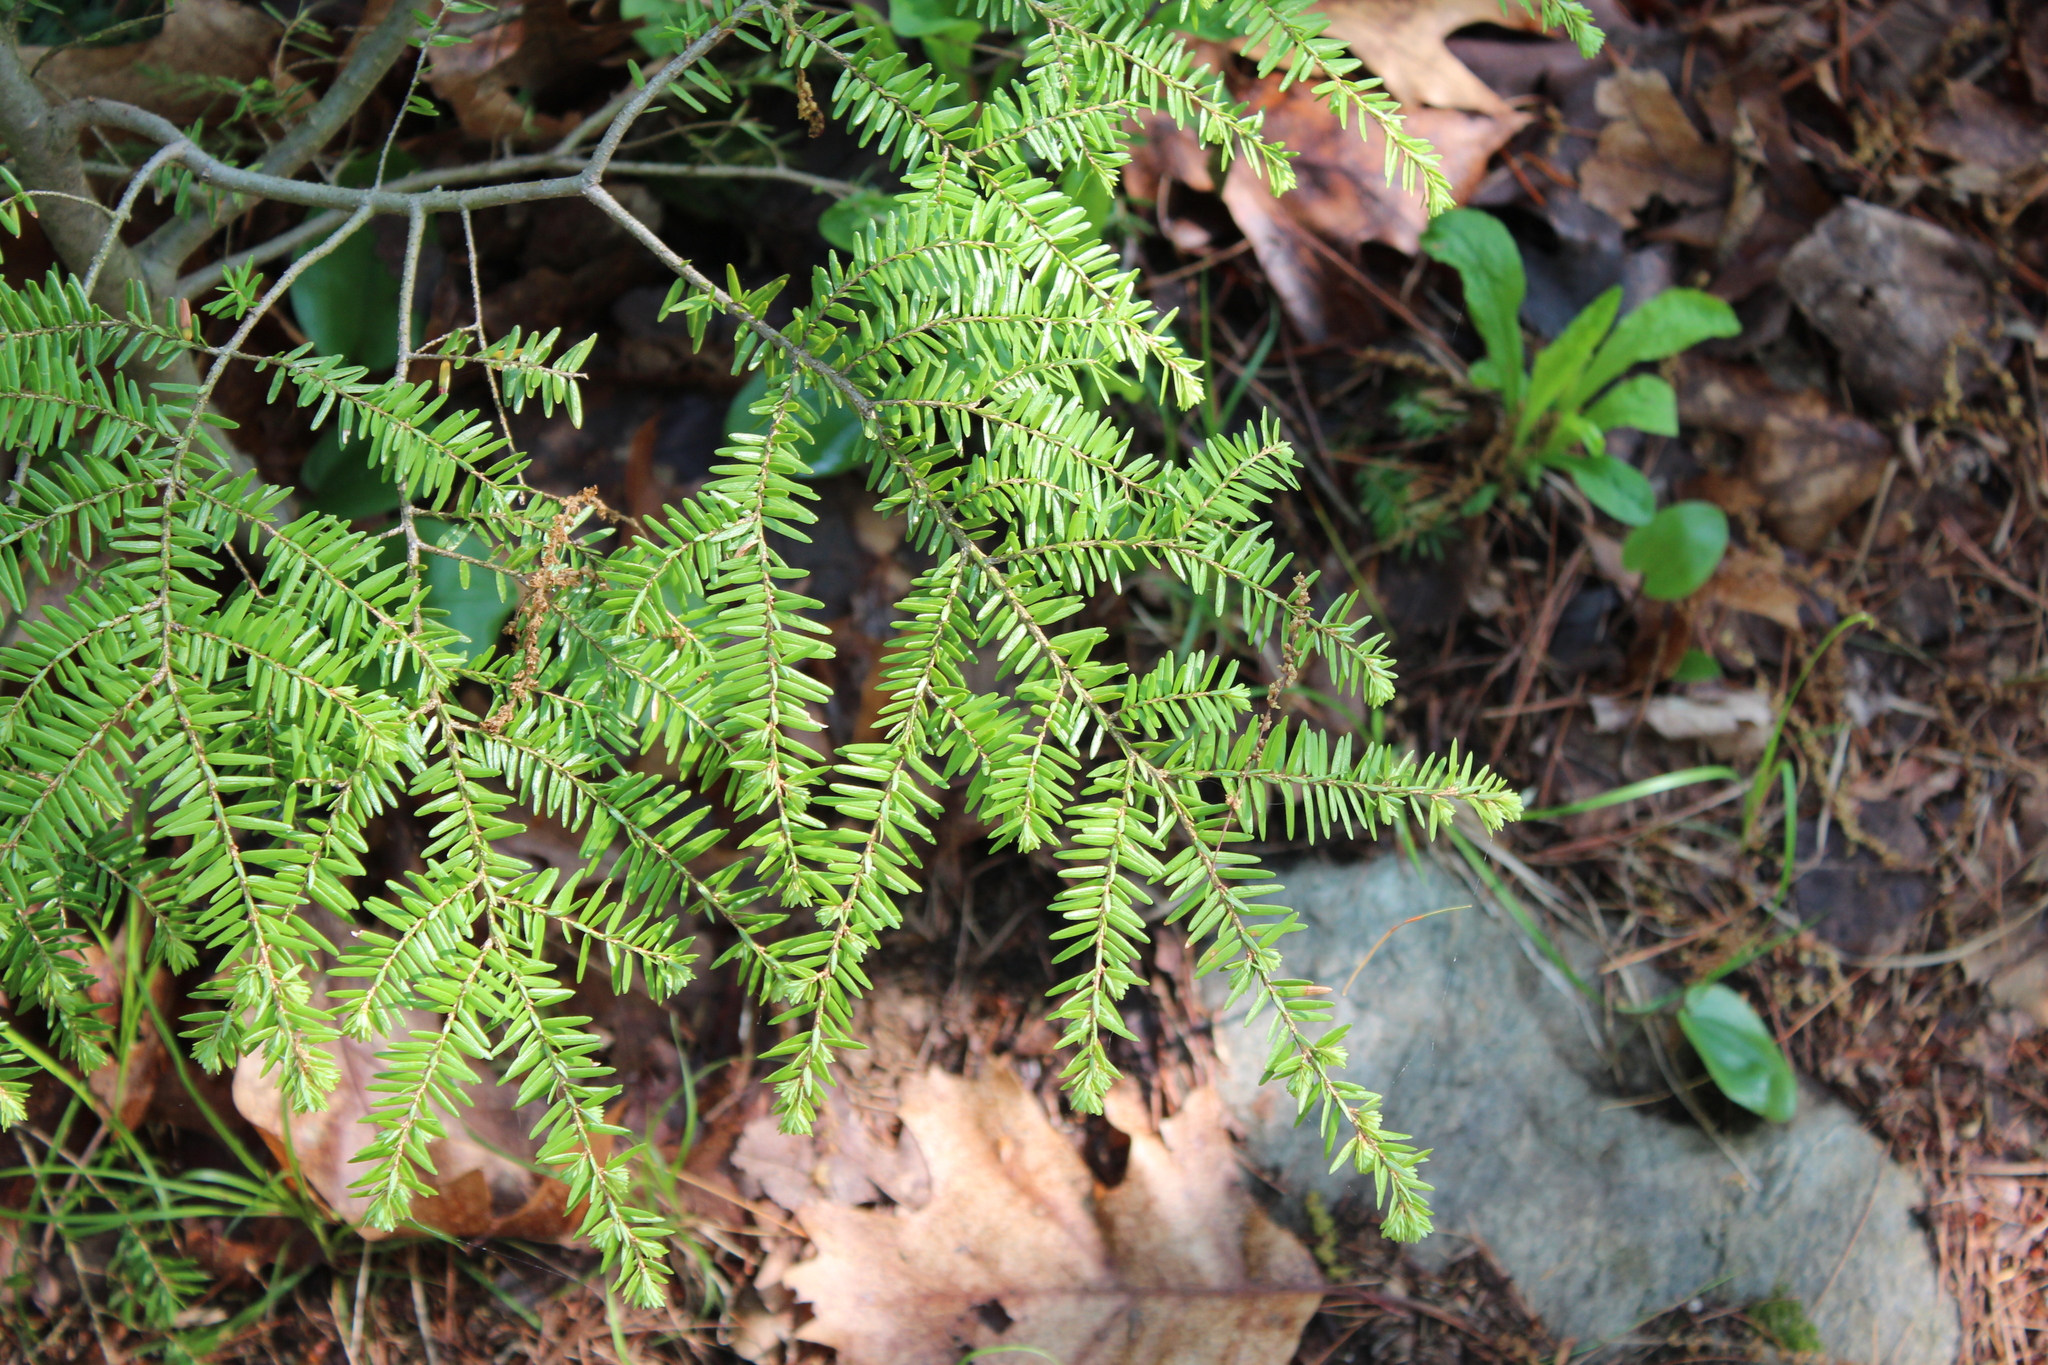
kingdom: Plantae
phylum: Tracheophyta
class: Pinopsida
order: Pinales
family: Pinaceae
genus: Tsuga
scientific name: Tsuga canadensis
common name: Eastern hemlock
